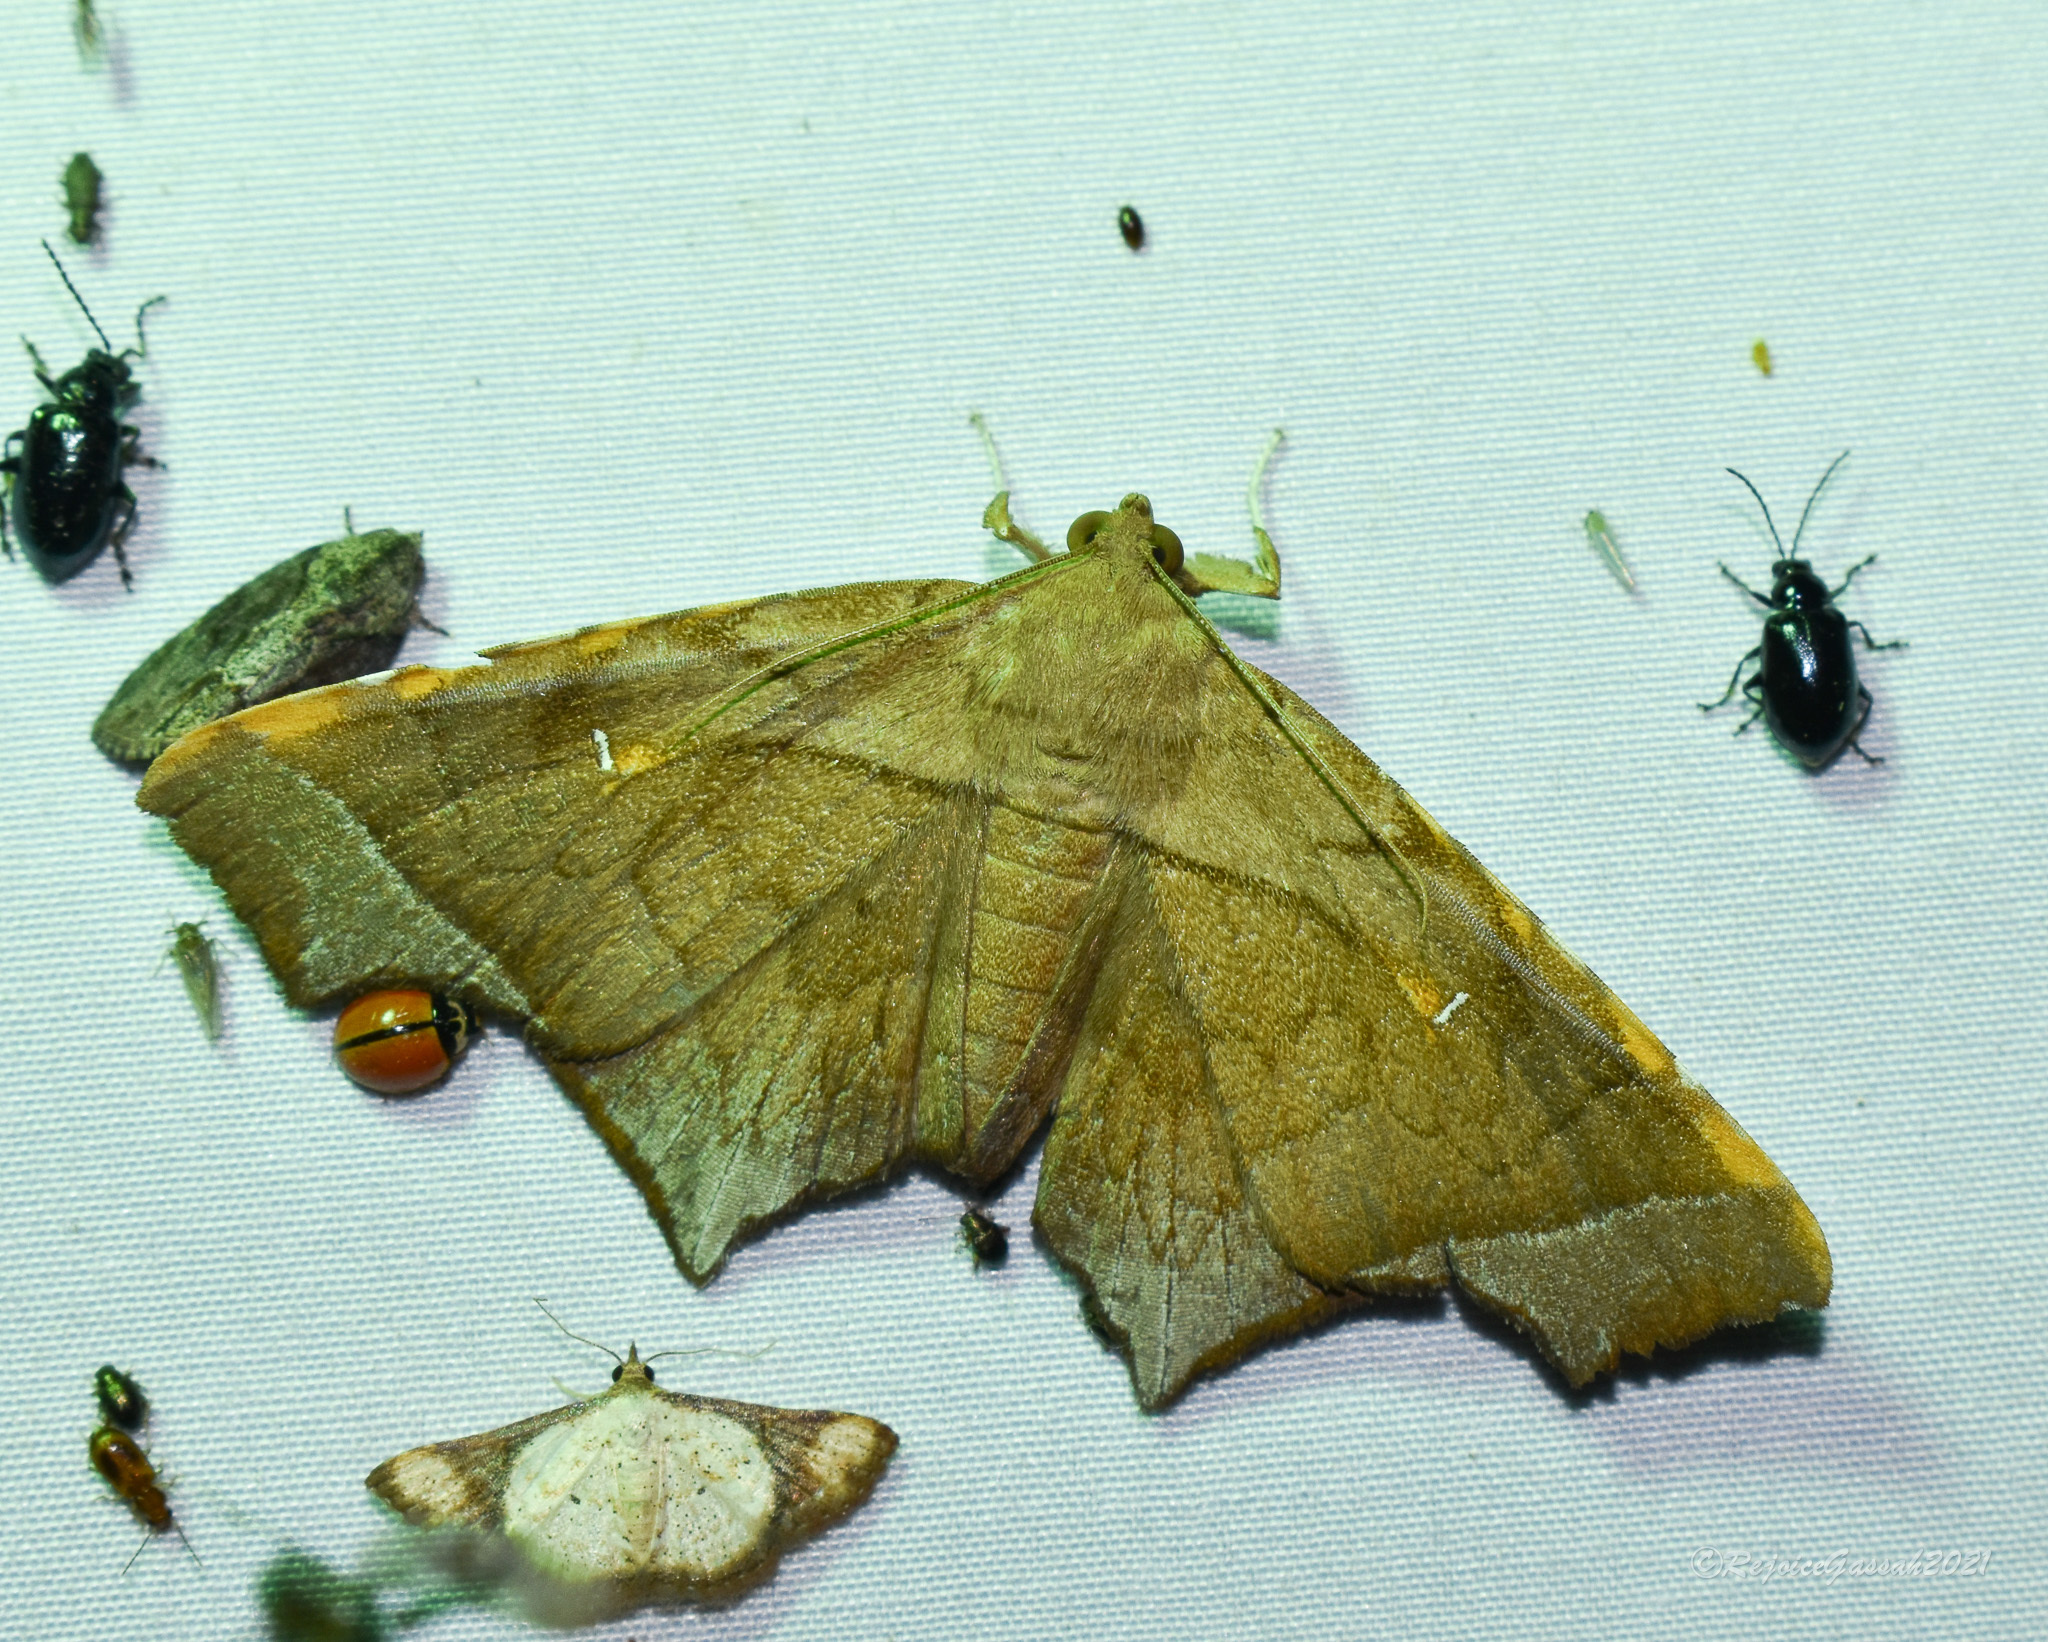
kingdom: Animalia
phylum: Arthropoda
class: Insecta
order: Lepidoptera
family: Erebidae
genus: Episparis
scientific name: Episparis costistriga
